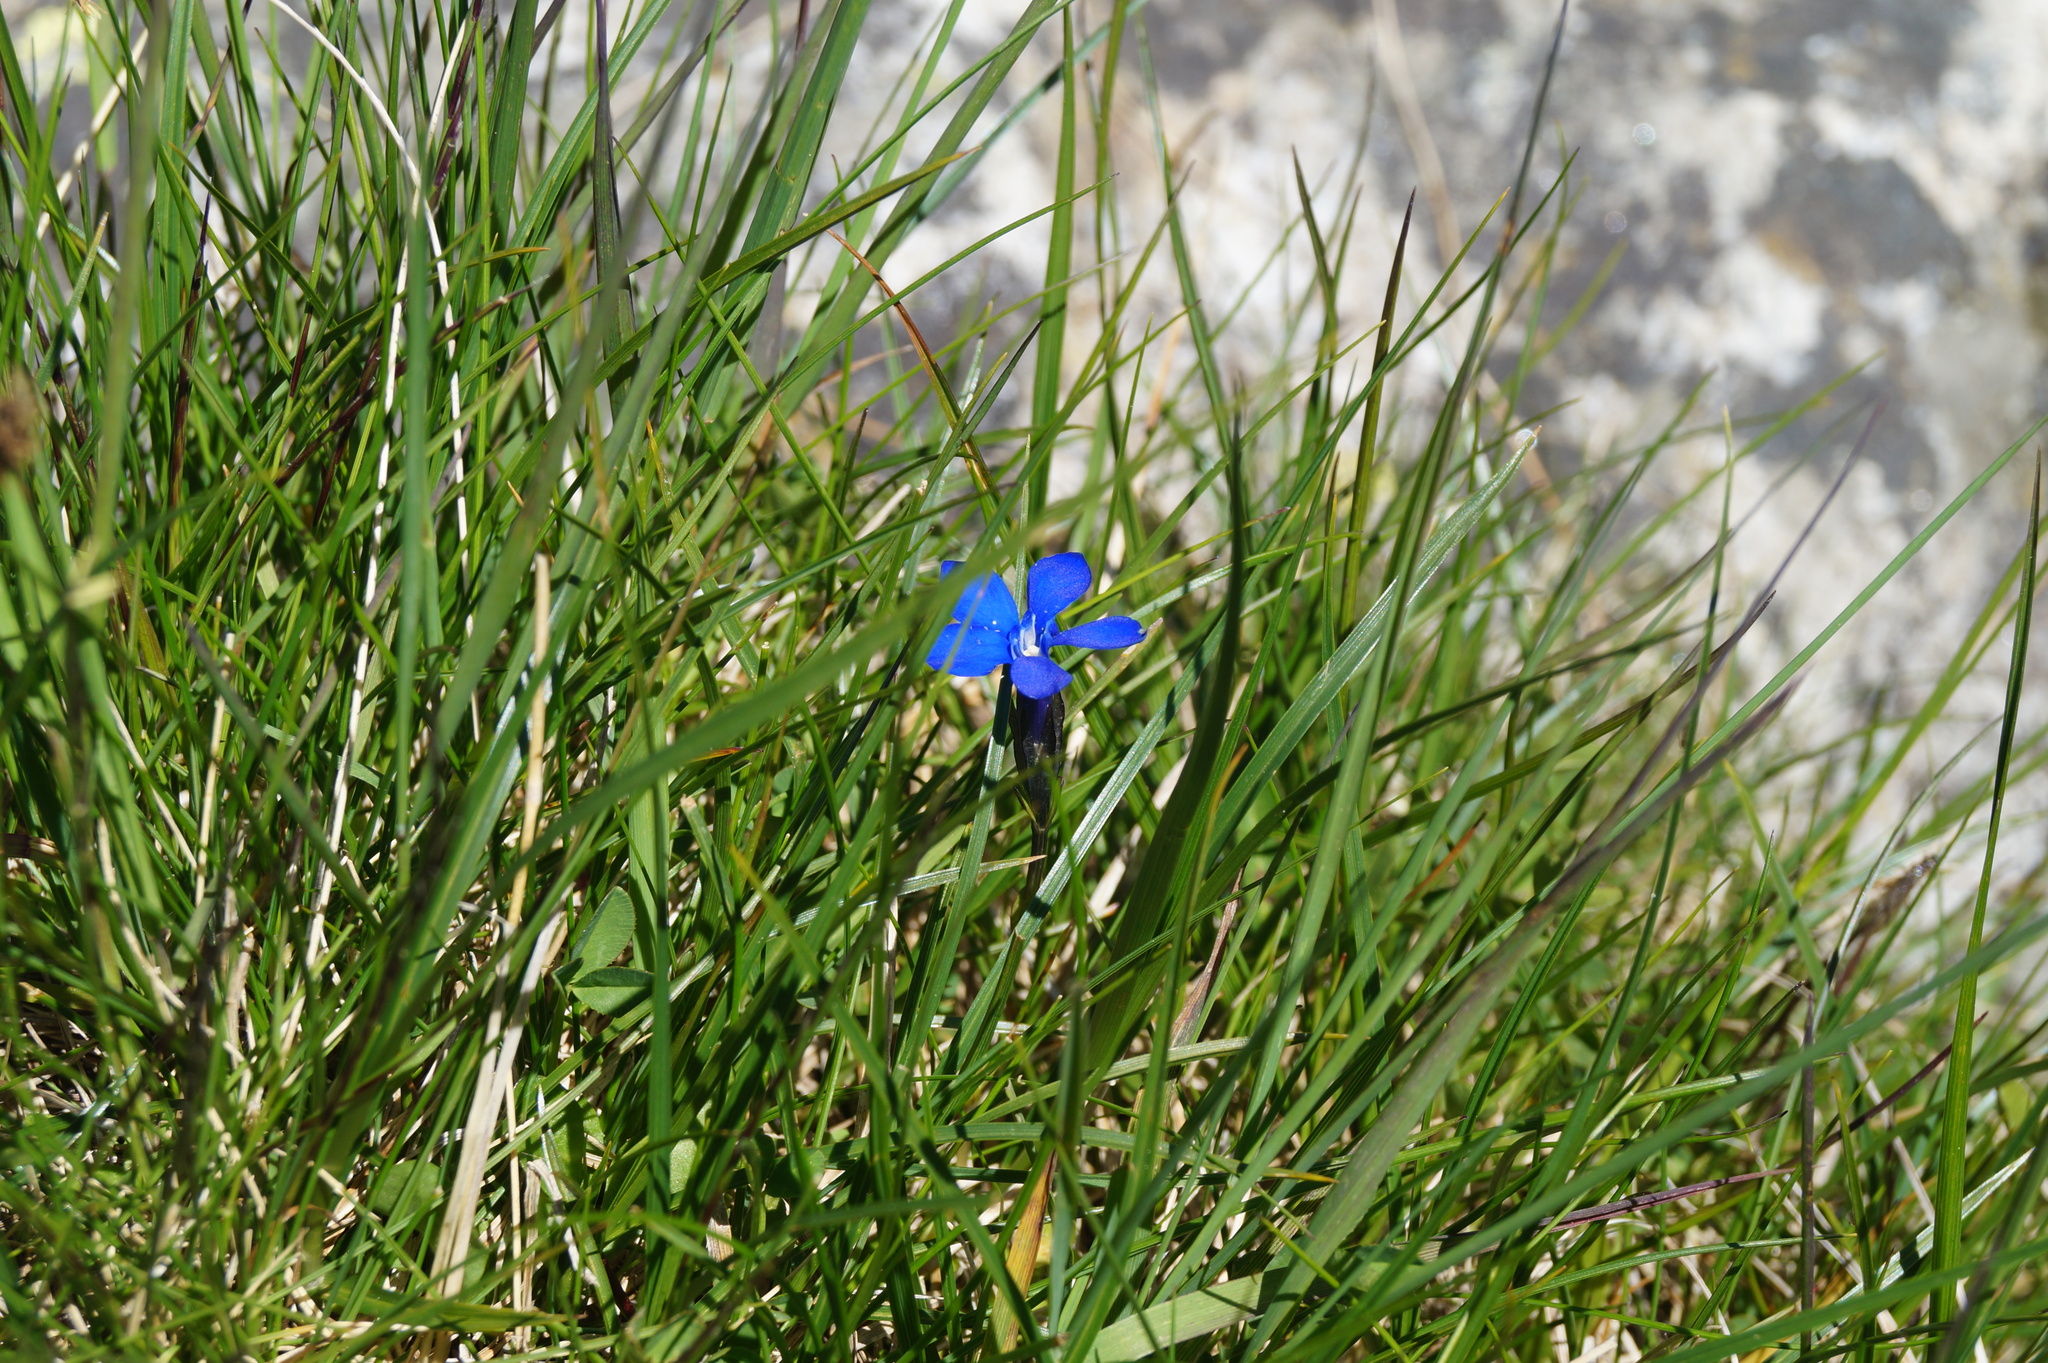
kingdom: Plantae
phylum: Tracheophyta
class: Magnoliopsida
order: Gentianales
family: Gentianaceae
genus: Gentiana
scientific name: Gentiana bavarica
